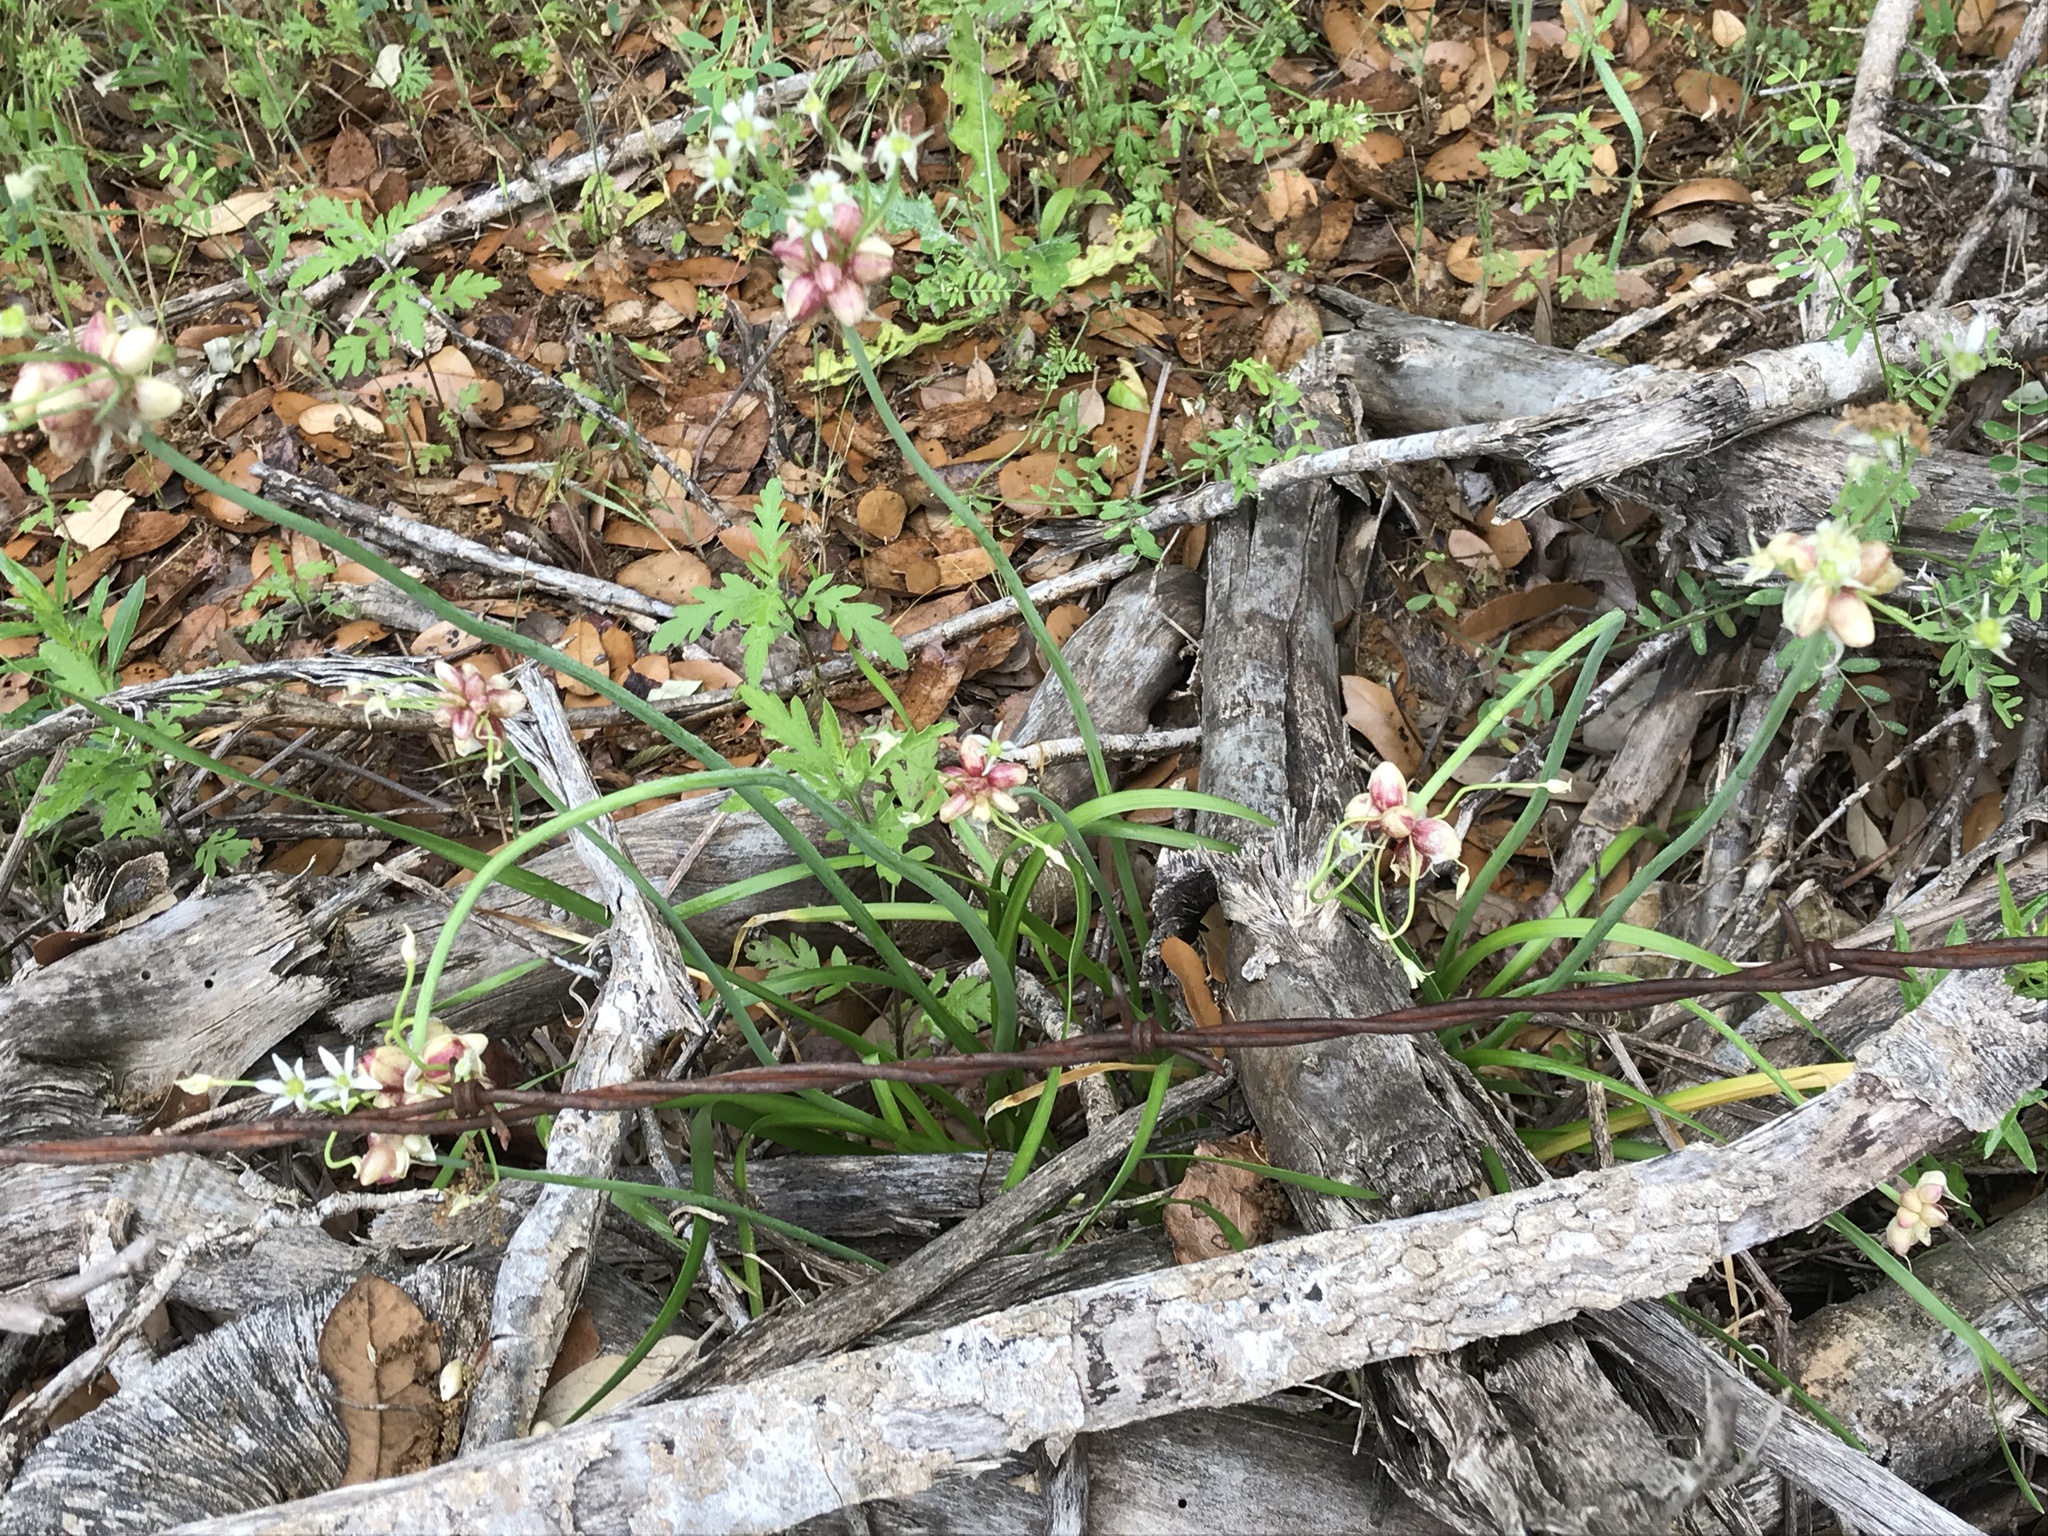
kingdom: Plantae
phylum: Tracheophyta
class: Liliopsida
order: Asparagales
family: Amaryllidaceae
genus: Allium
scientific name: Allium canadense
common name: Meadow garlic
